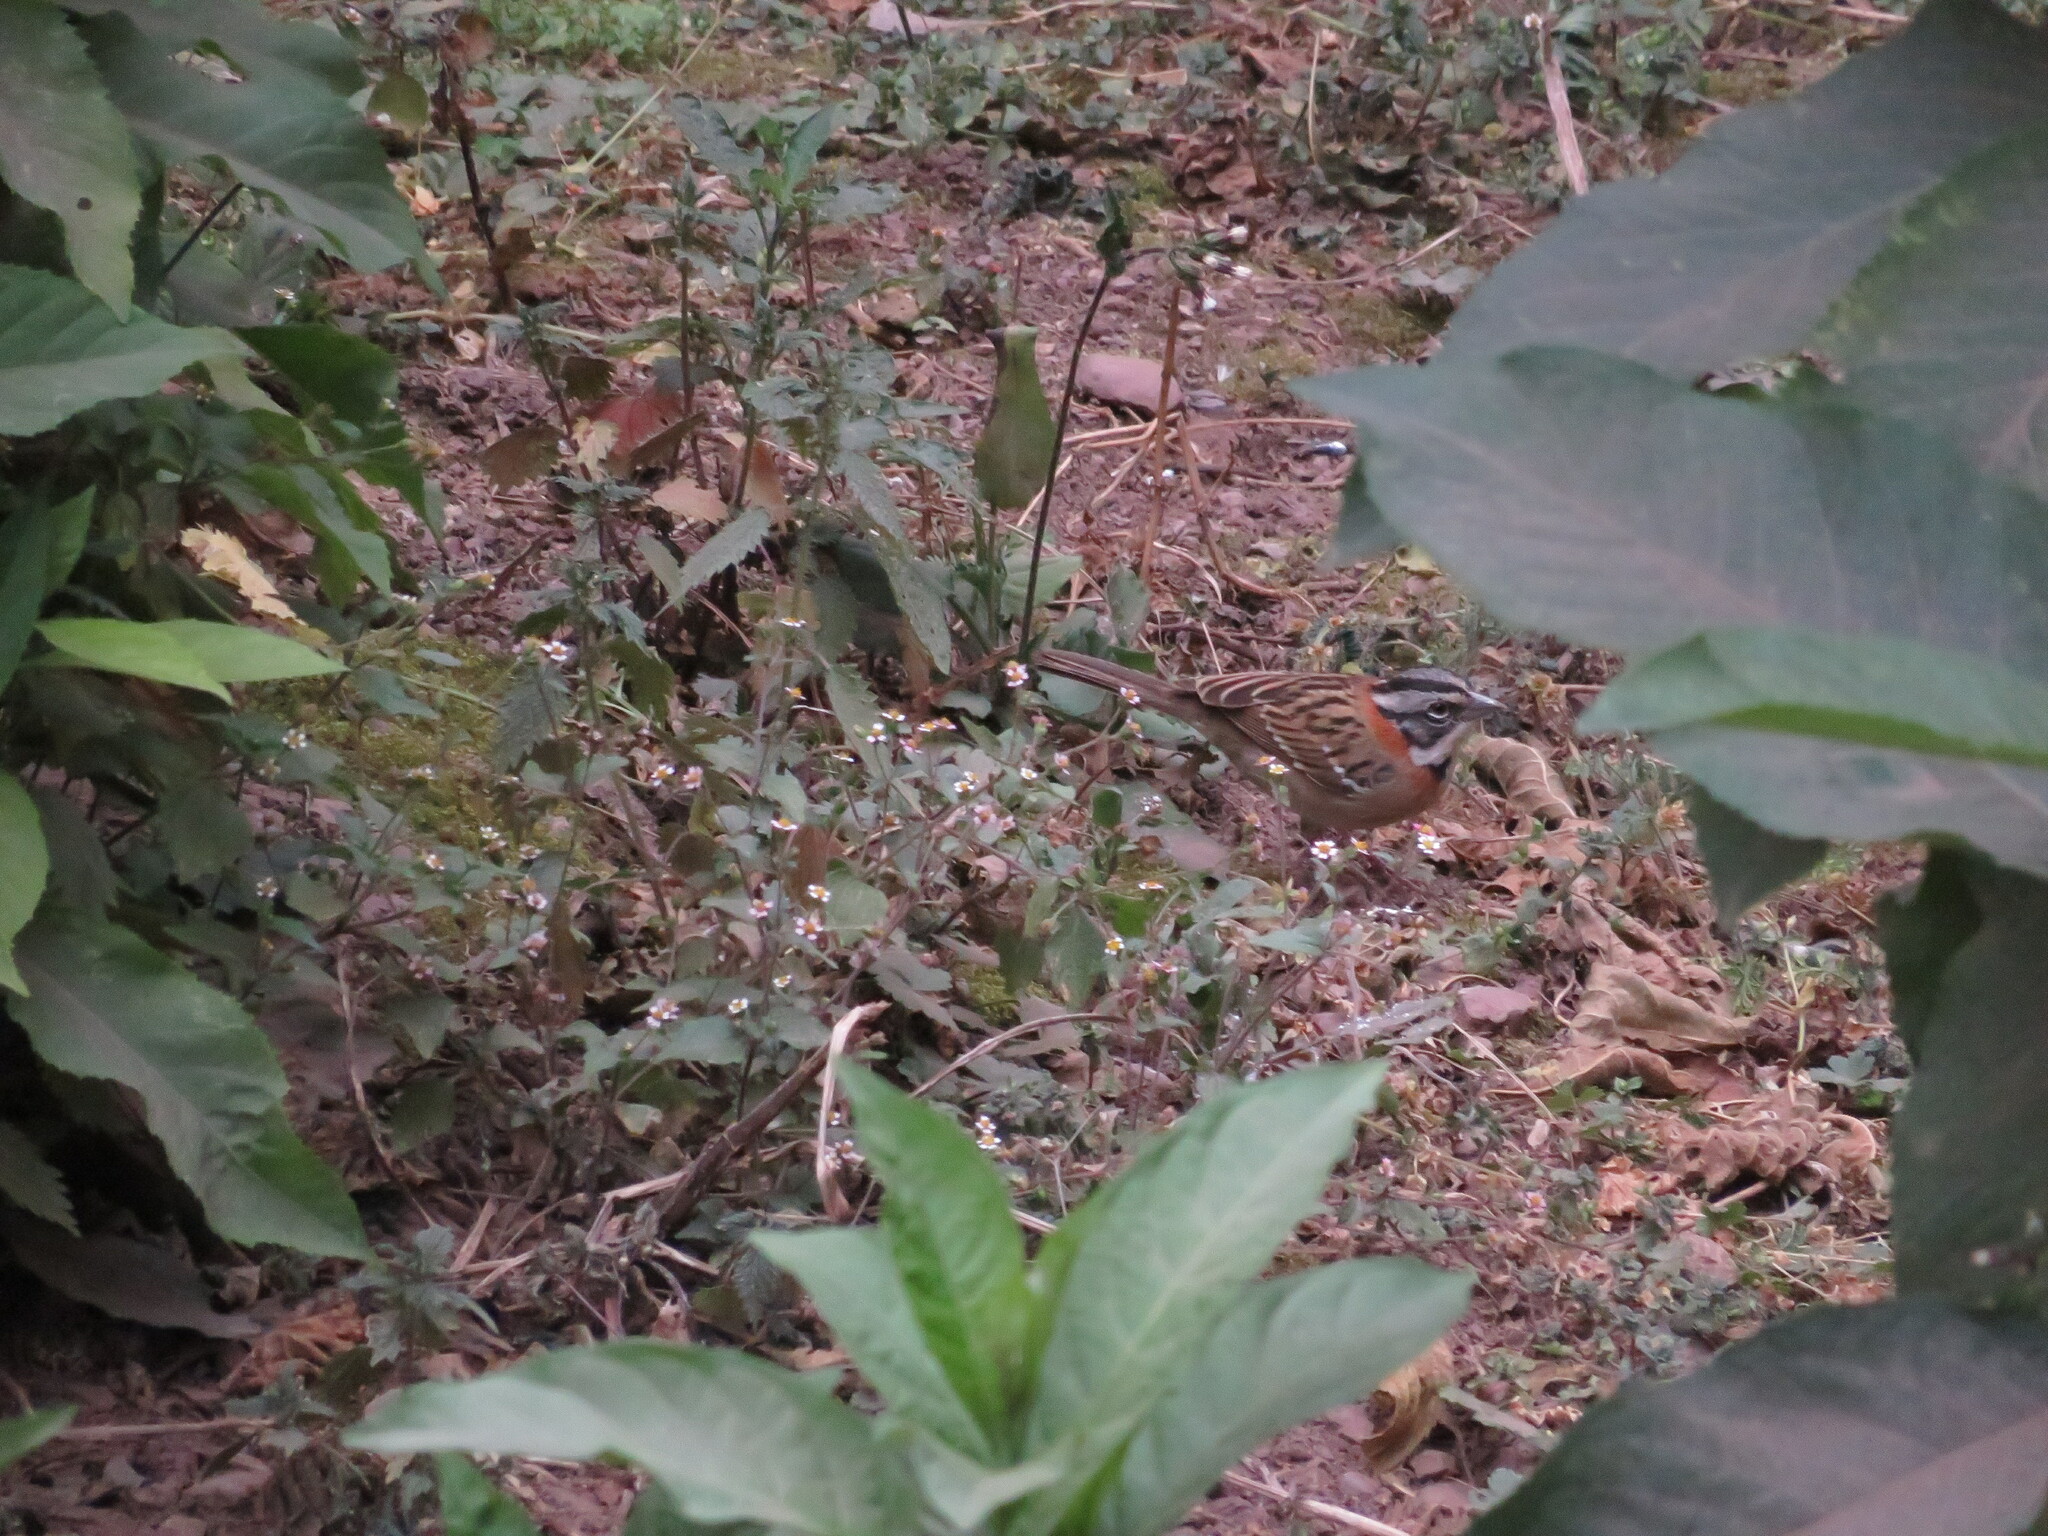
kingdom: Animalia
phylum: Chordata
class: Aves
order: Passeriformes
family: Passerellidae
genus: Zonotrichia
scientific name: Zonotrichia capensis
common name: Rufous-collared sparrow
